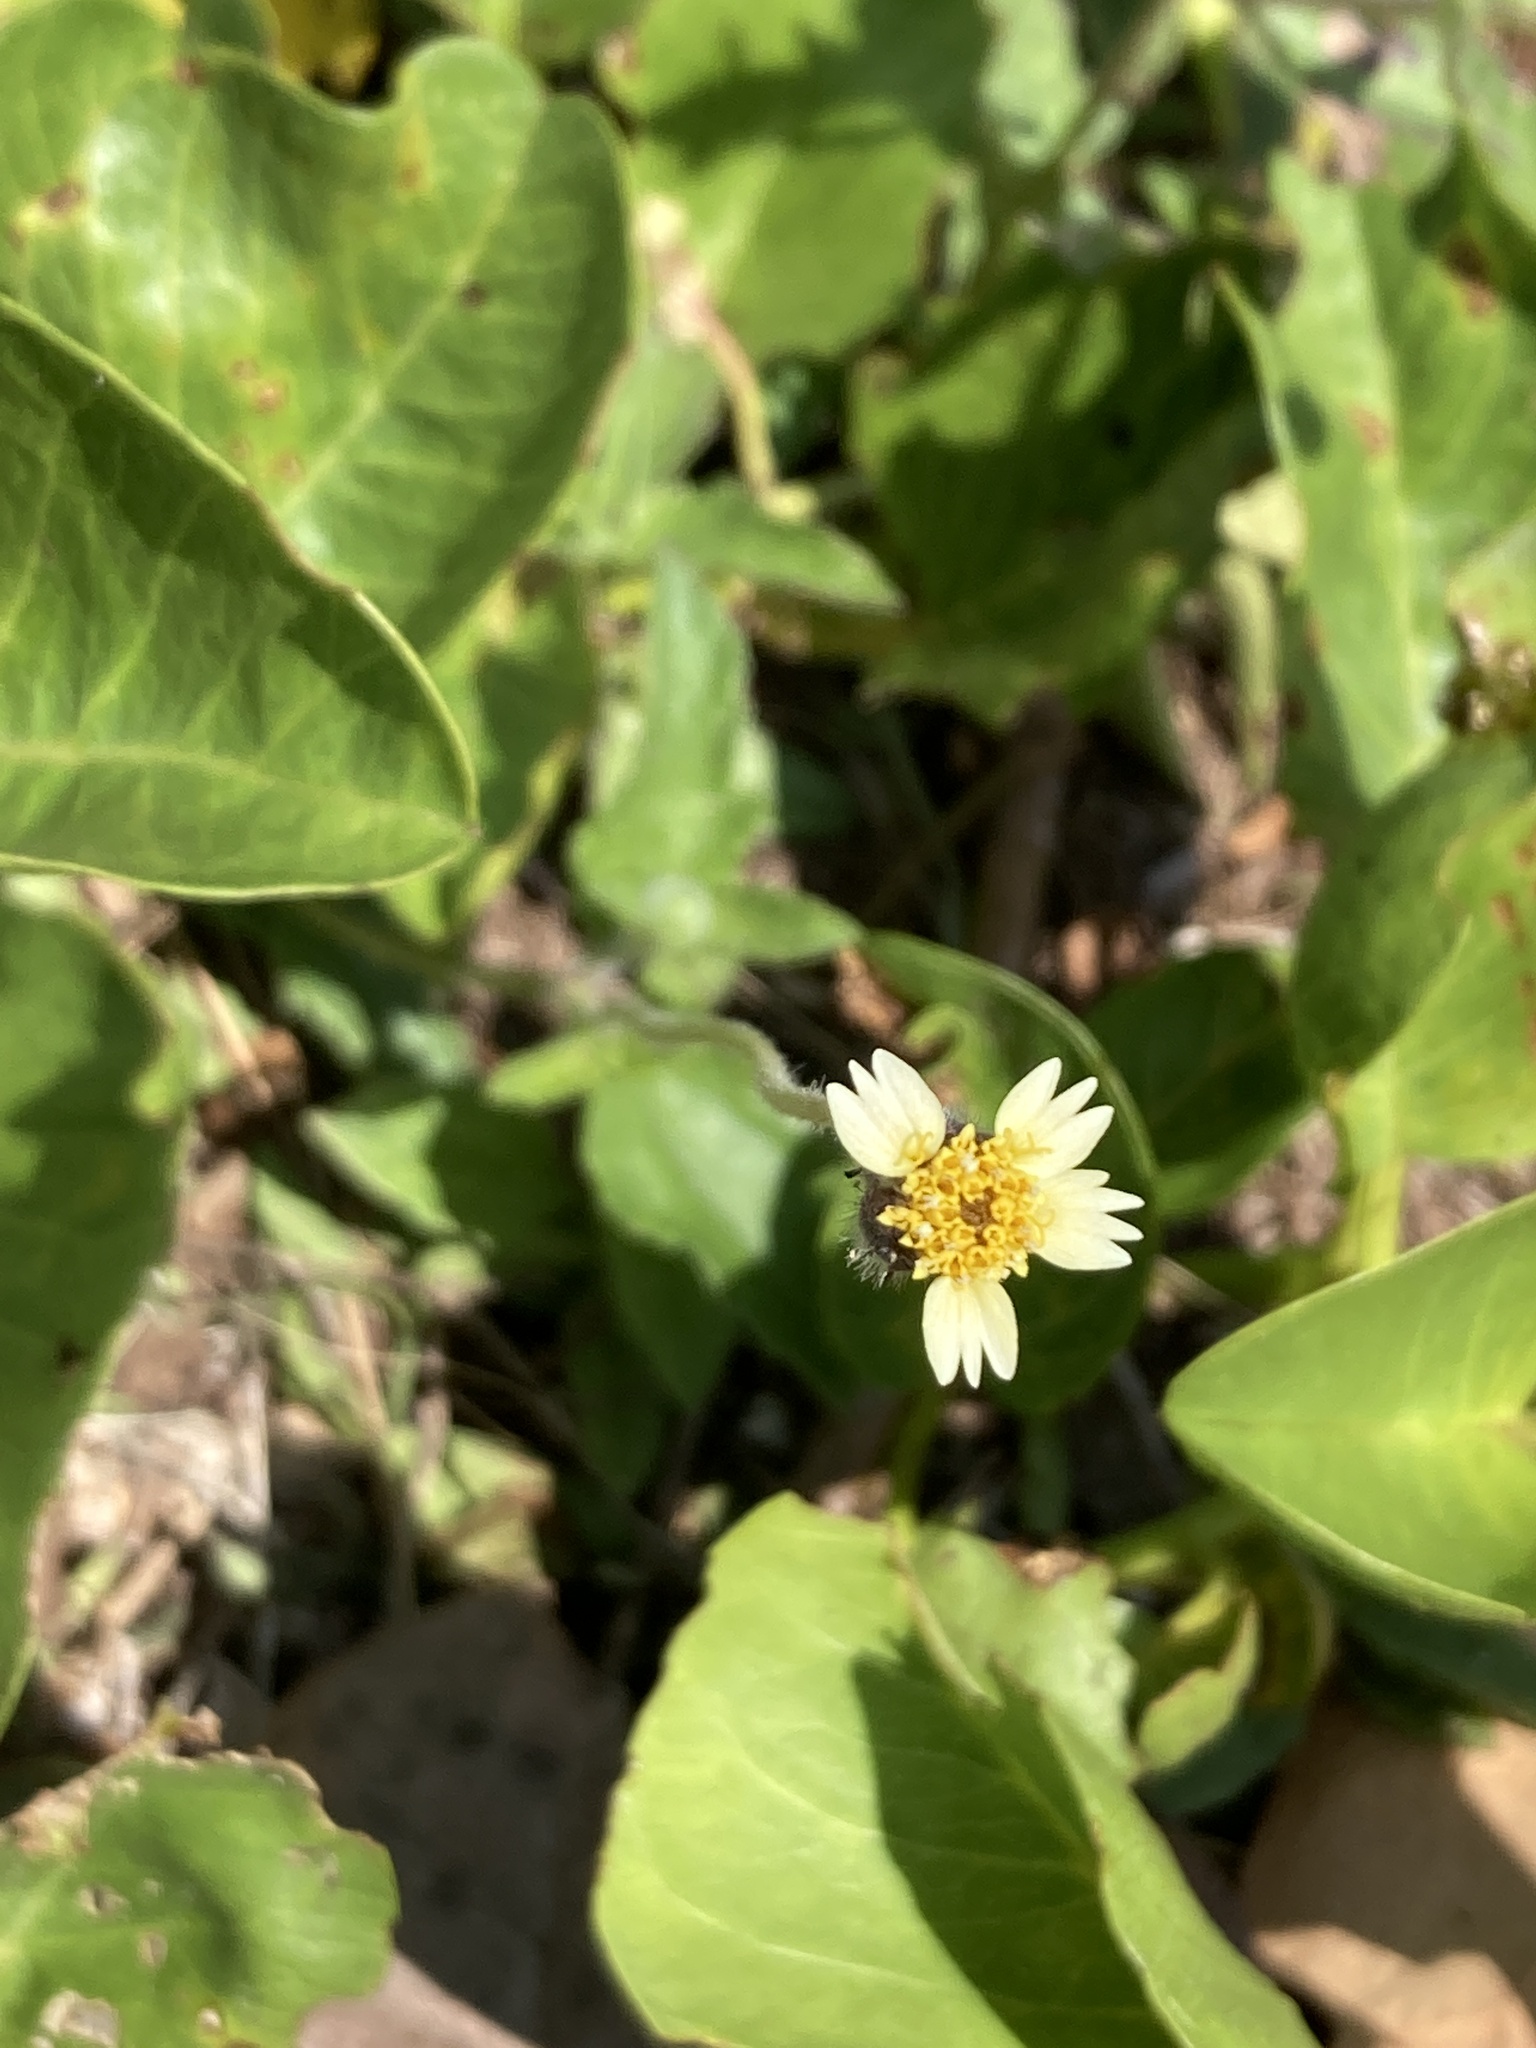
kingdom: Plantae
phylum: Tracheophyta
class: Magnoliopsida
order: Asterales
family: Asteraceae
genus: Tridax
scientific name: Tridax procumbens
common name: Coatbuttons
